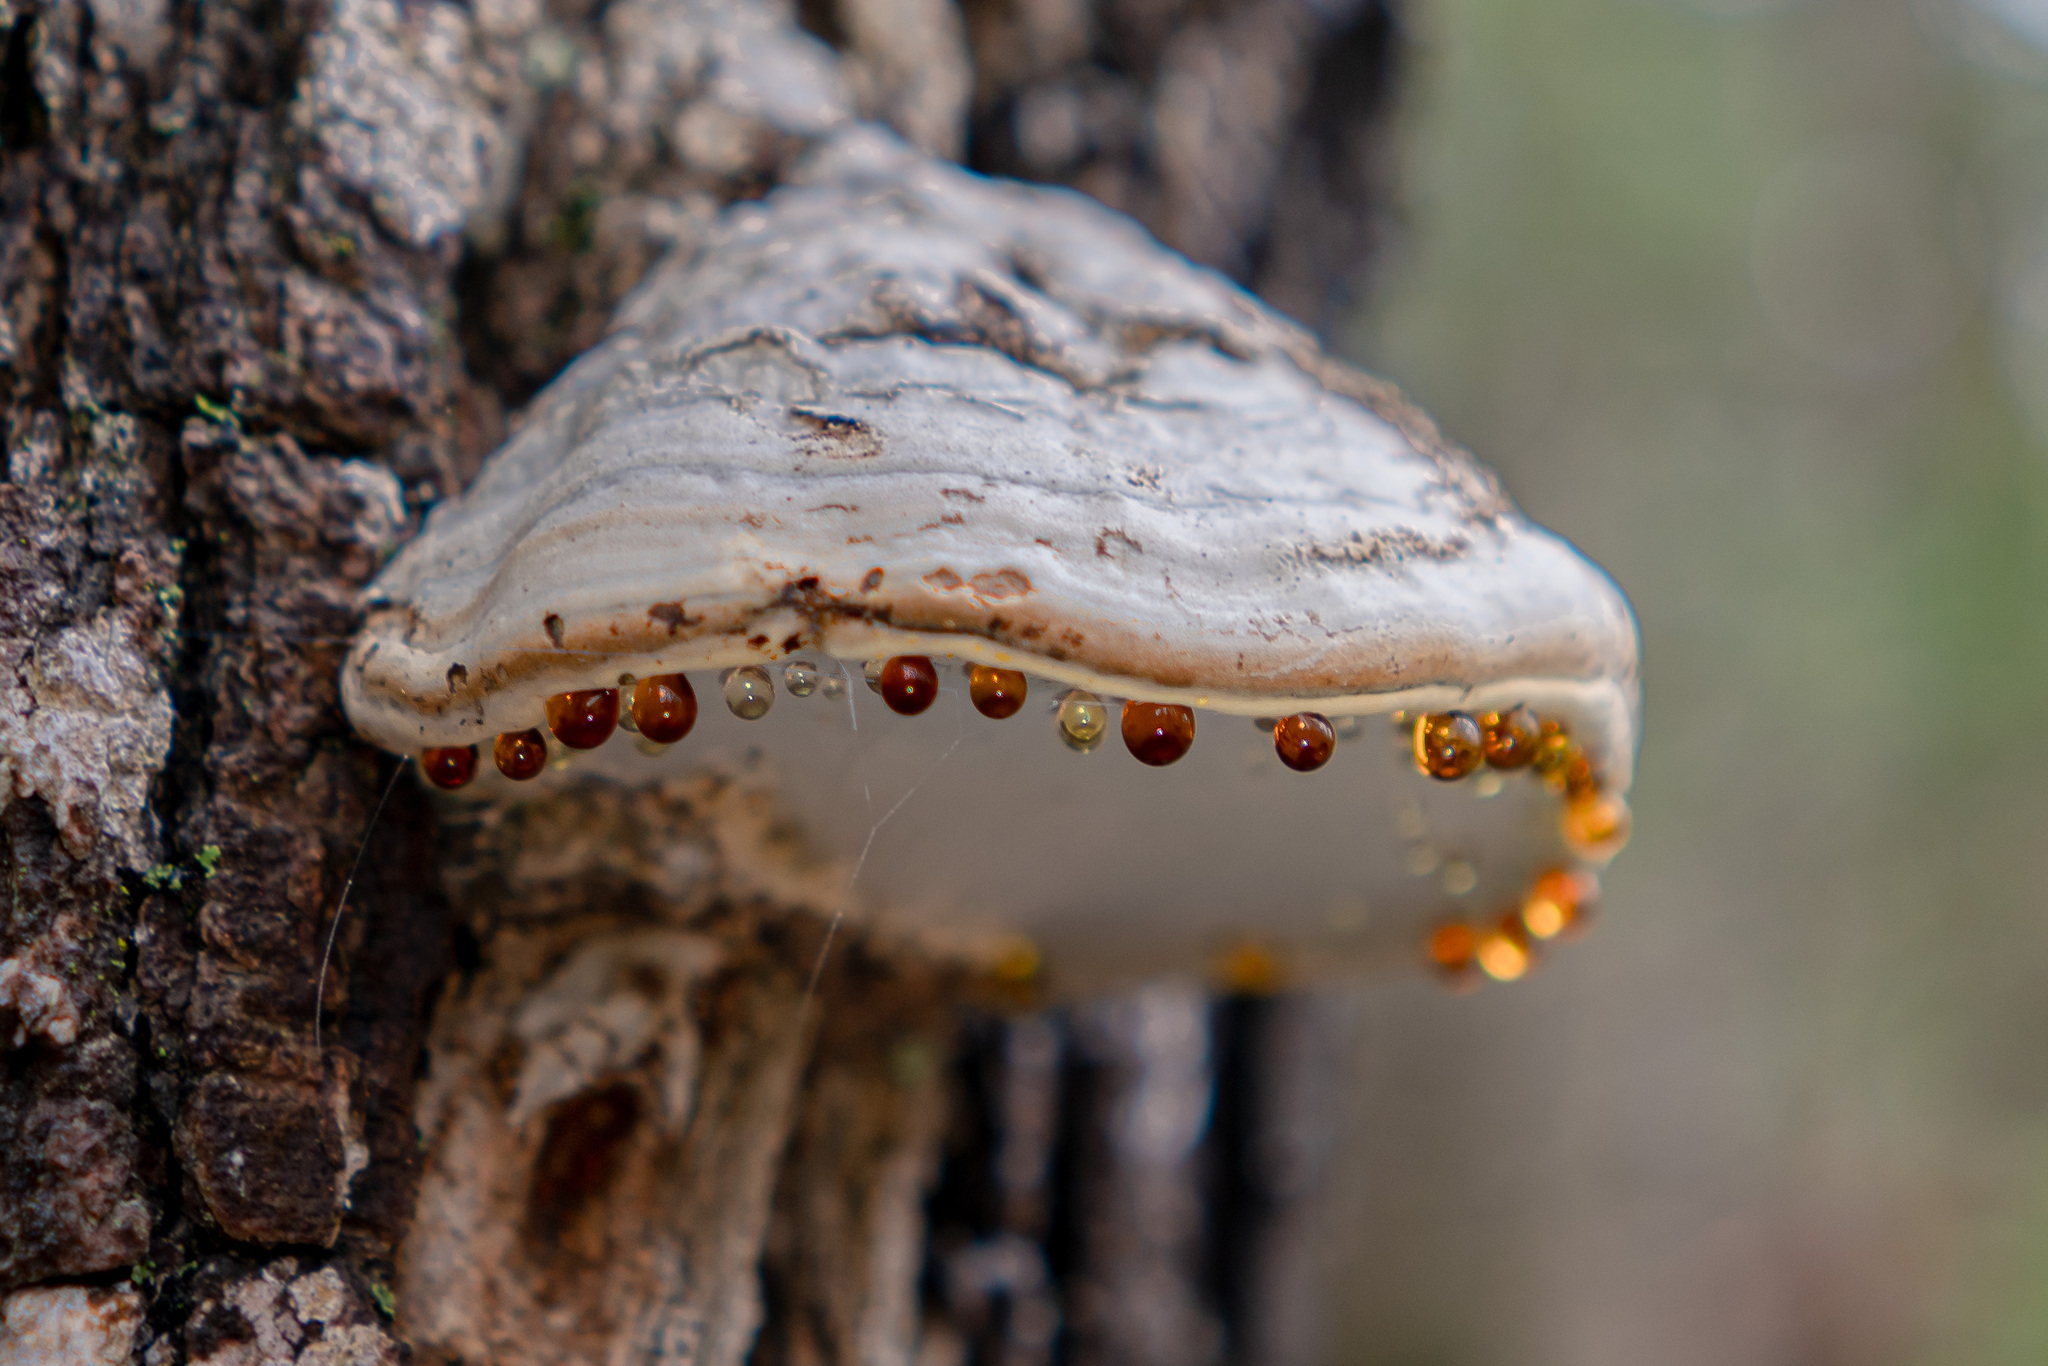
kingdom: Fungi
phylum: Basidiomycota
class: Agaricomycetes
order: Polyporales
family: Polyporaceae
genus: Fomes
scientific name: Fomes fomentarius
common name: Hoof fungus
